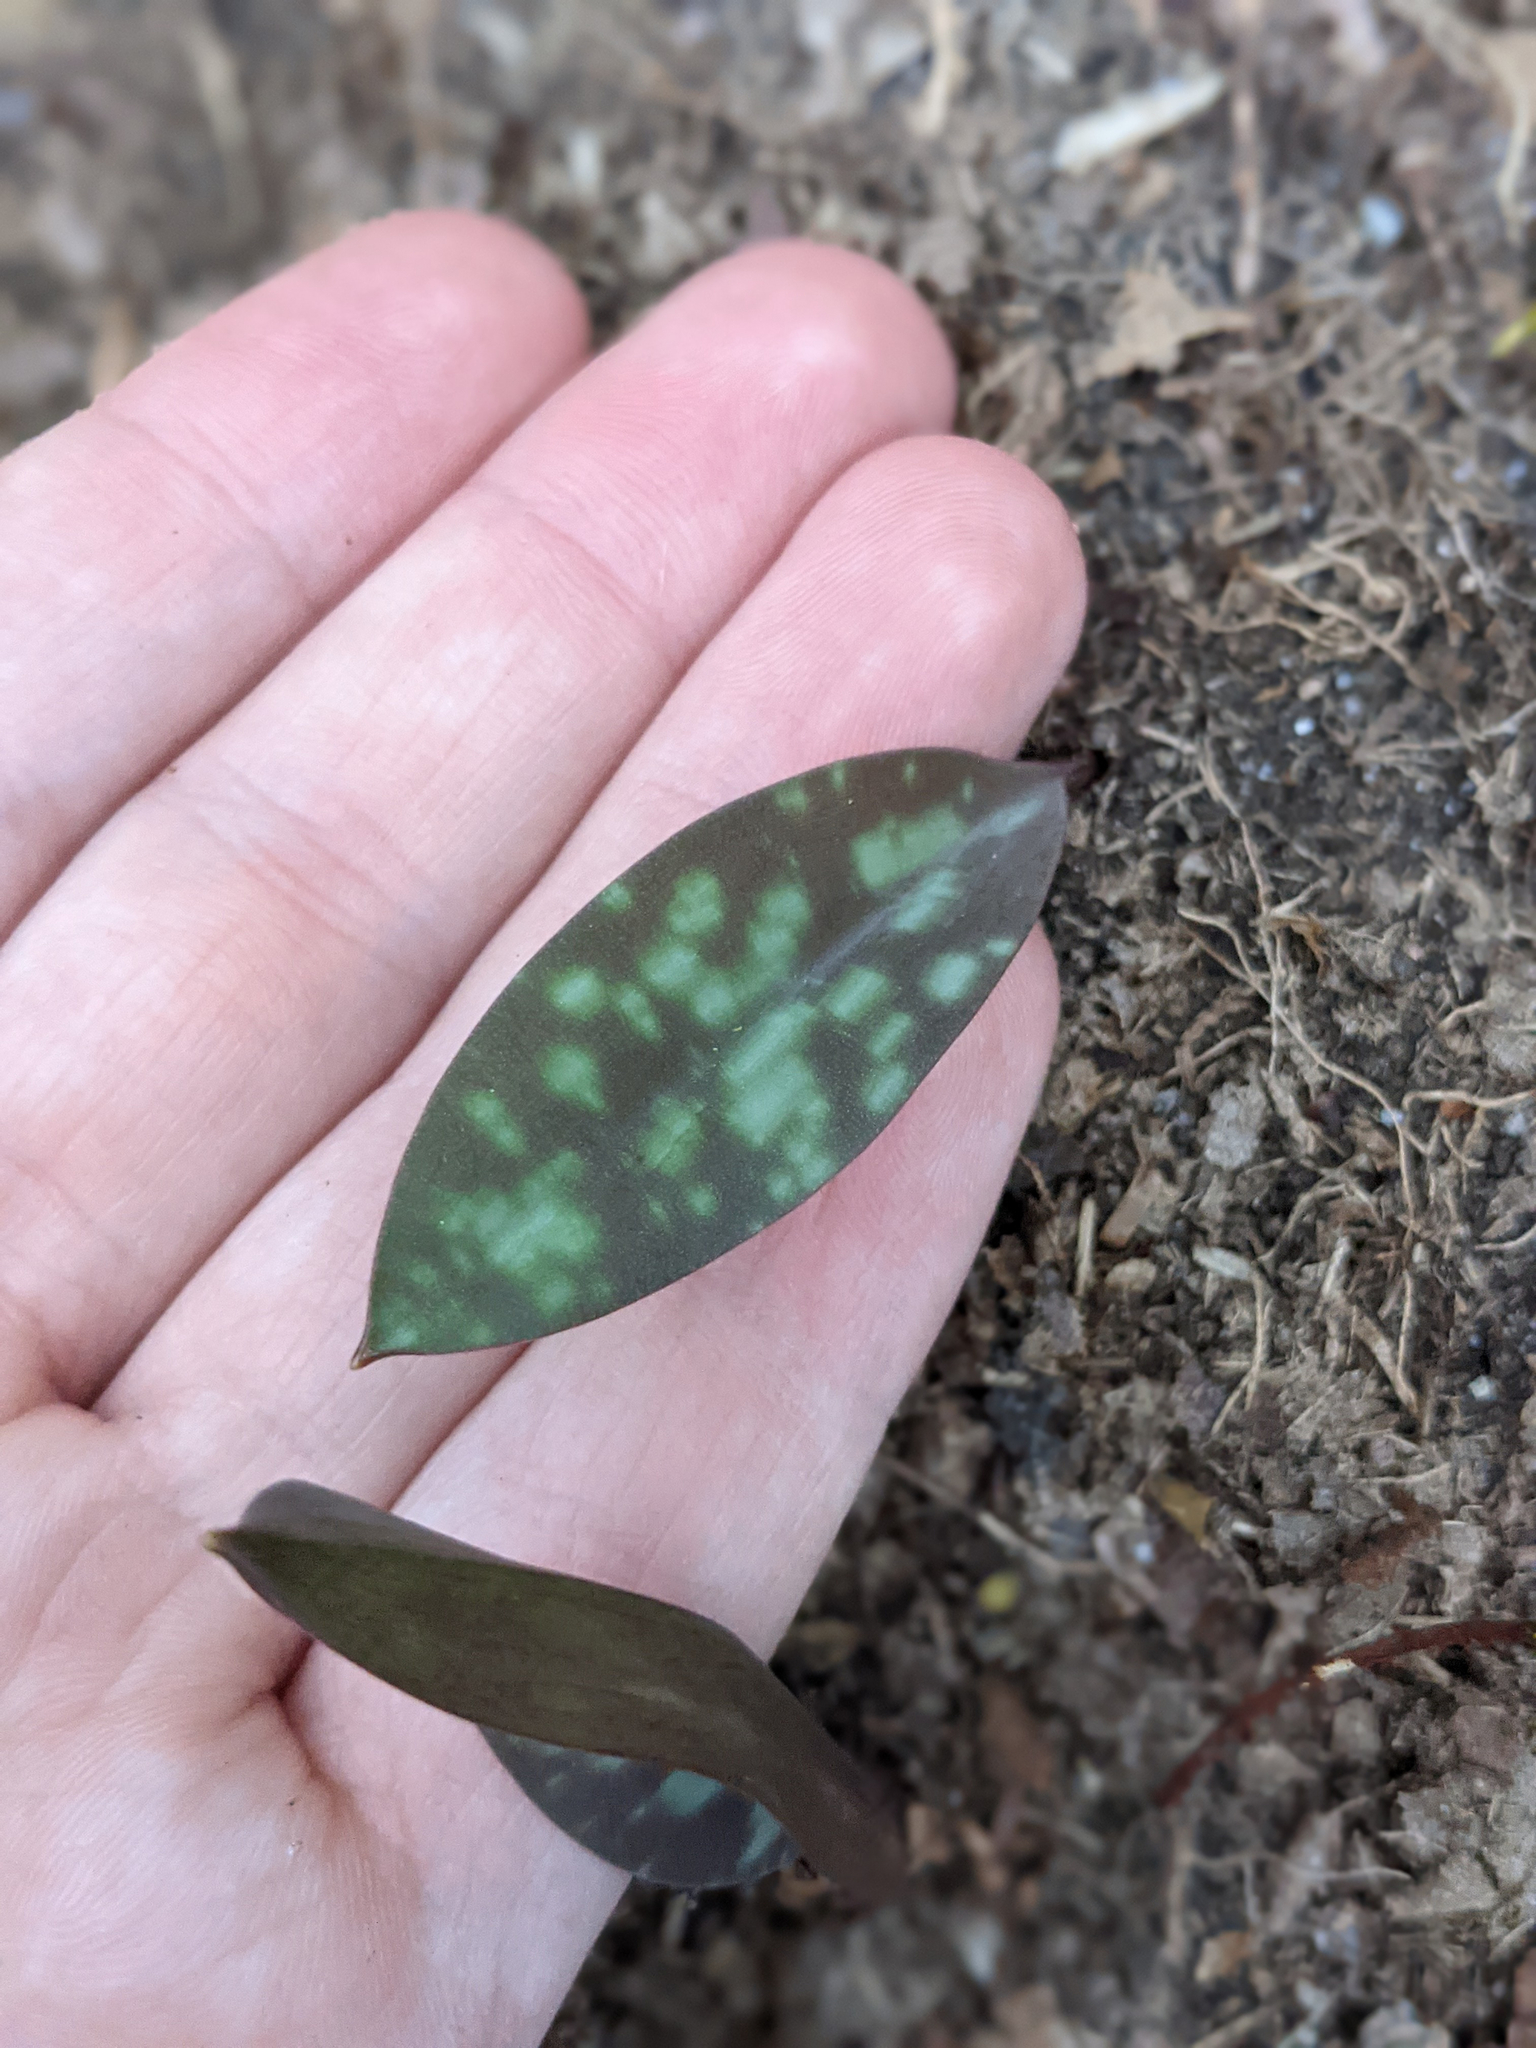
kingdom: Plantae
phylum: Tracheophyta
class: Liliopsida
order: Liliales
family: Liliaceae
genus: Erythronium
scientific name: Erythronium americanum
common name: Yellow adder's-tongue
